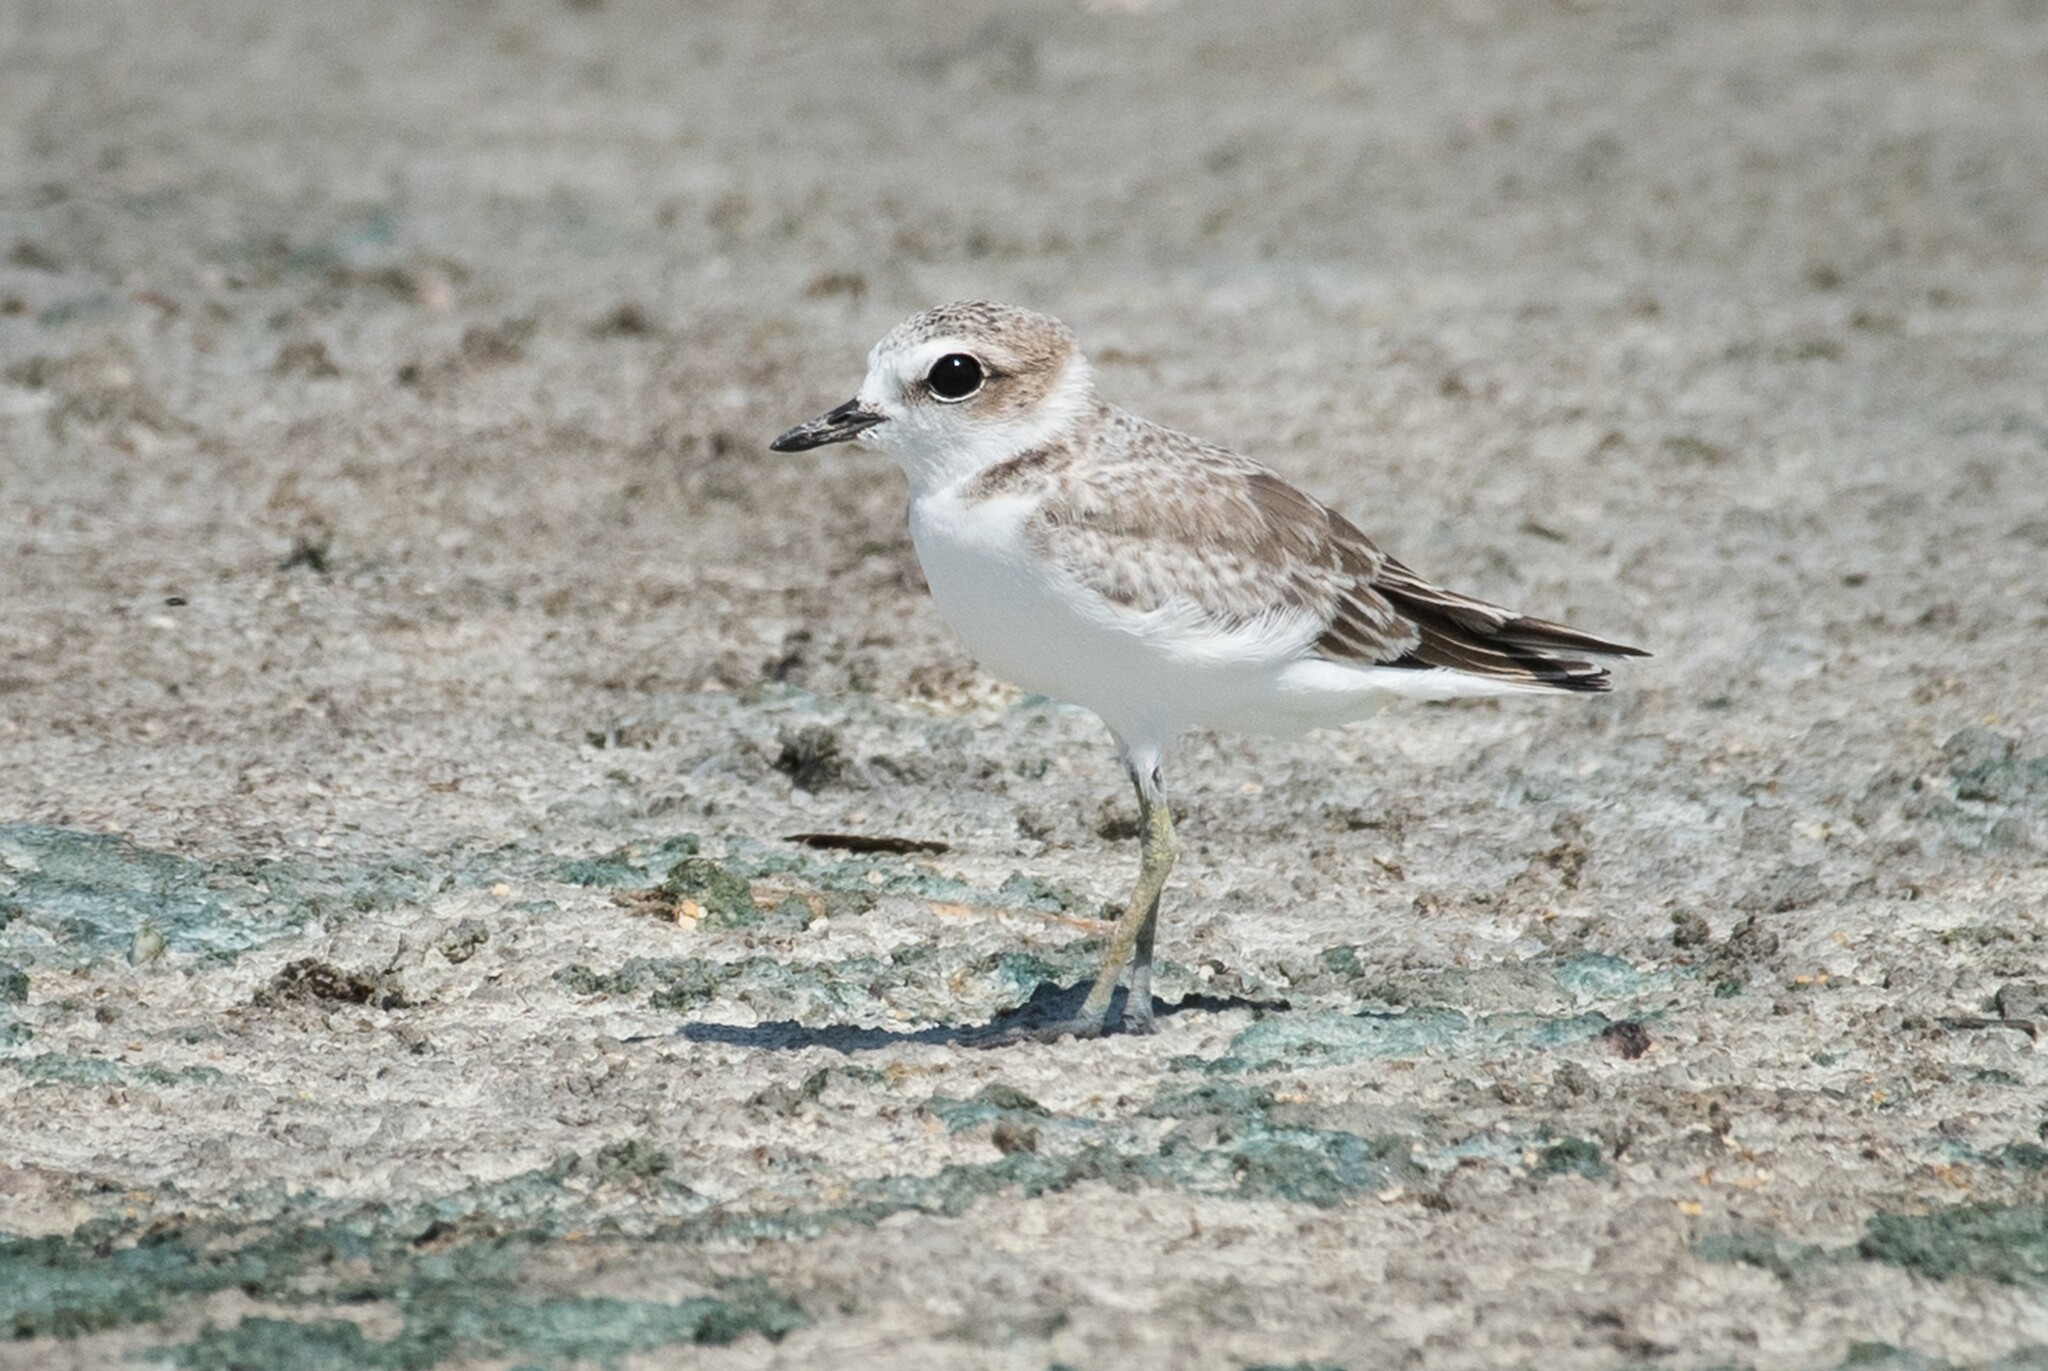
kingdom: Animalia
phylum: Chordata
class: Aves
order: Charadriiformes
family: Charadriidae
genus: Anarhynchus
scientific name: Anarhynchus
